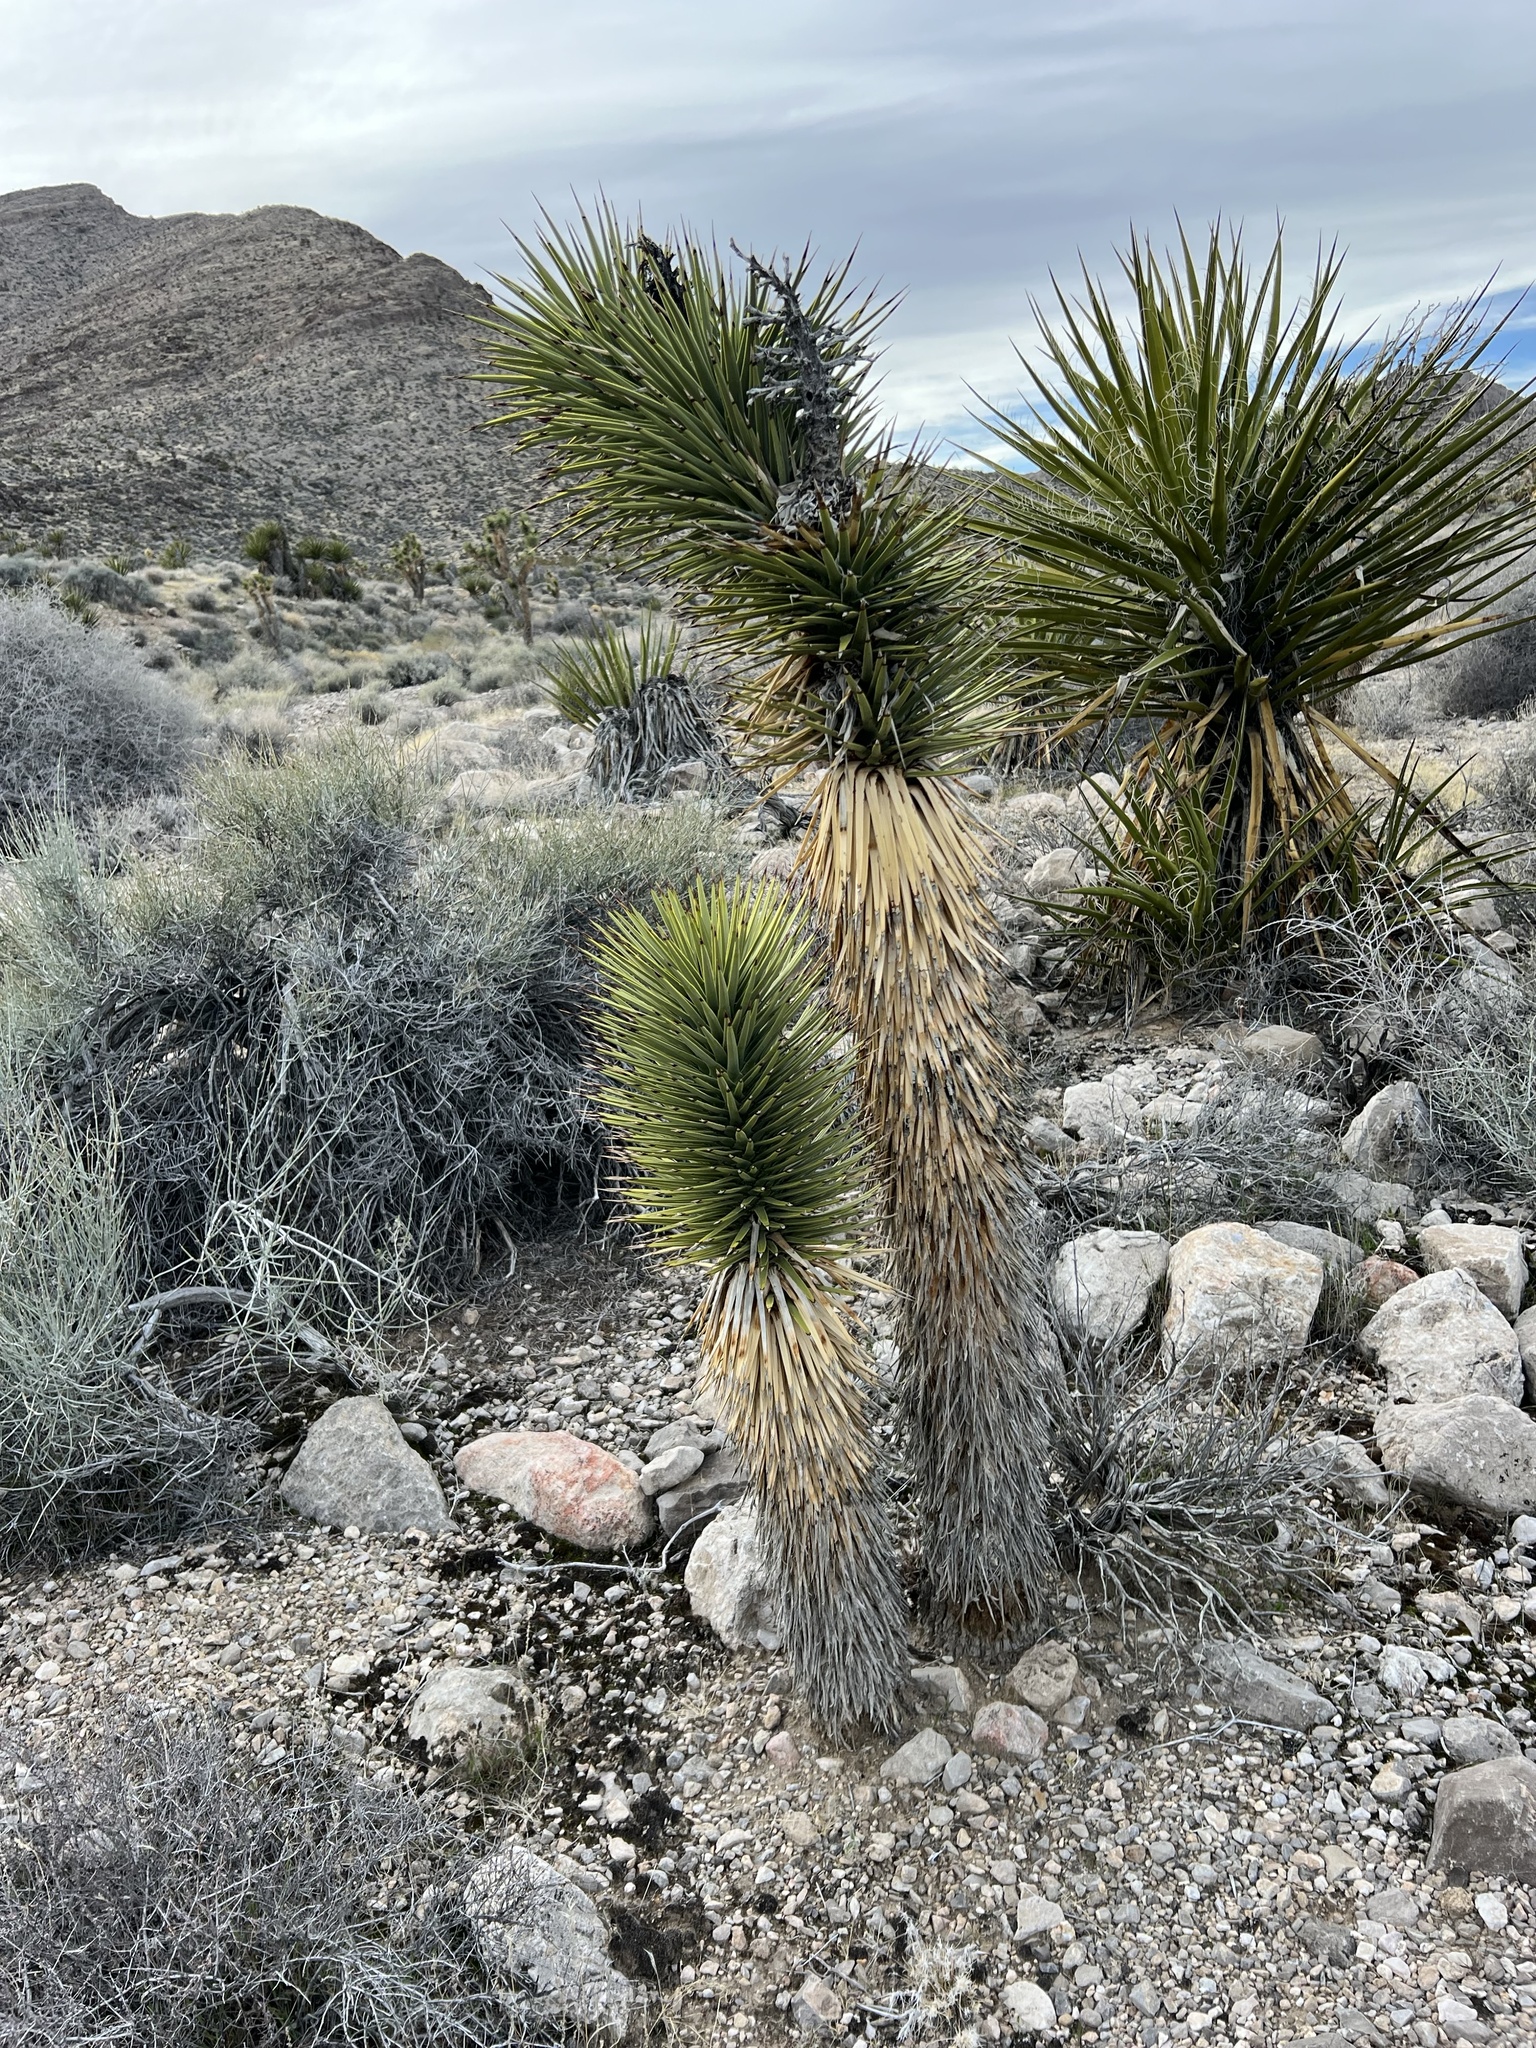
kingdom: Plantae
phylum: Tracheophyta
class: Liliopsida
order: Asparagales
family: Asparagaceae
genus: Yucca
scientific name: Yucca brevifolia
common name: Joshua tree
